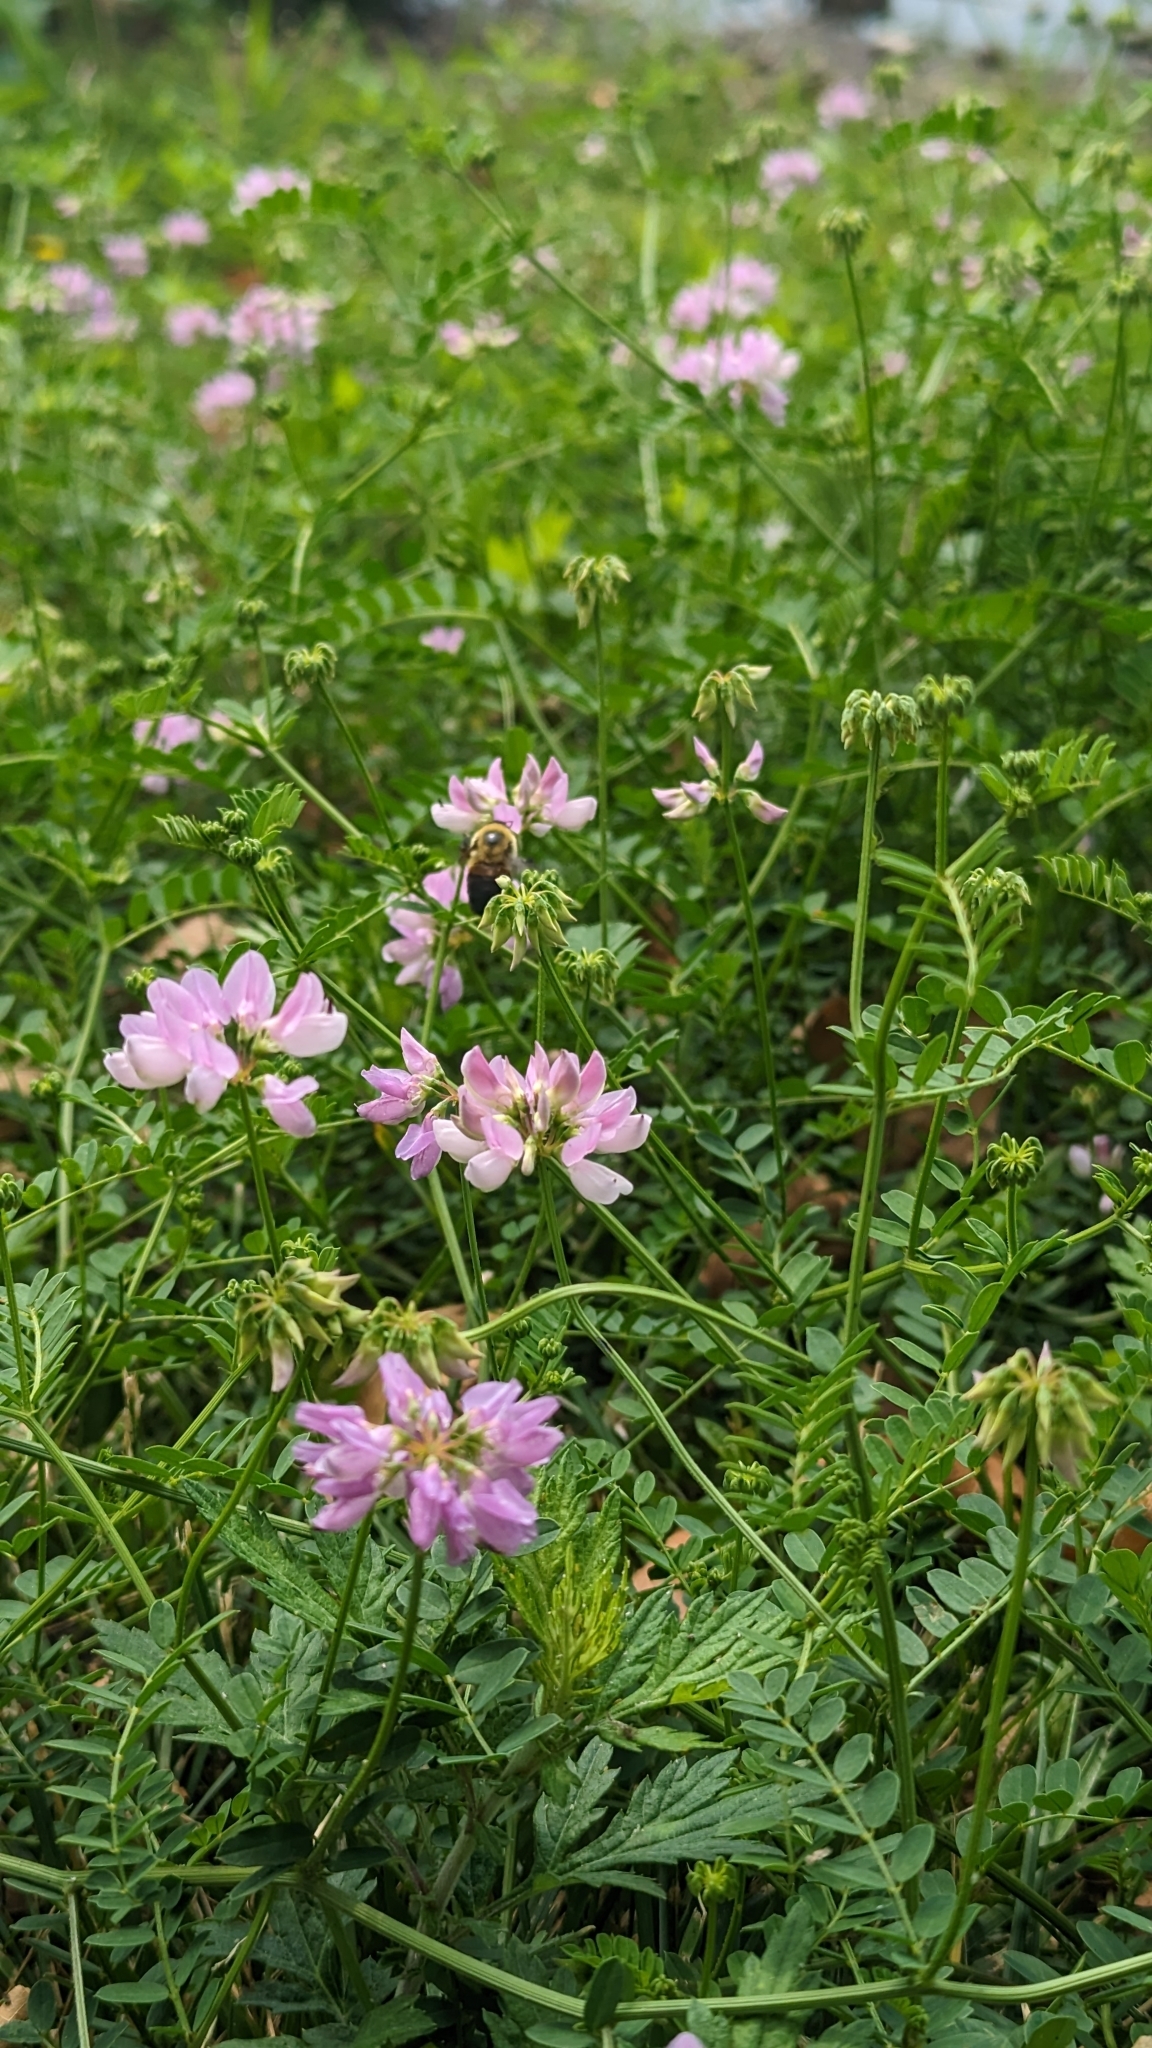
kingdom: Animalia
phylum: Arthropoda
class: Insecta
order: Hymenoptera
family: Apidae
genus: Bombus
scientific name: Bombus griseocollis
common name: Brown-belted bumble bee
